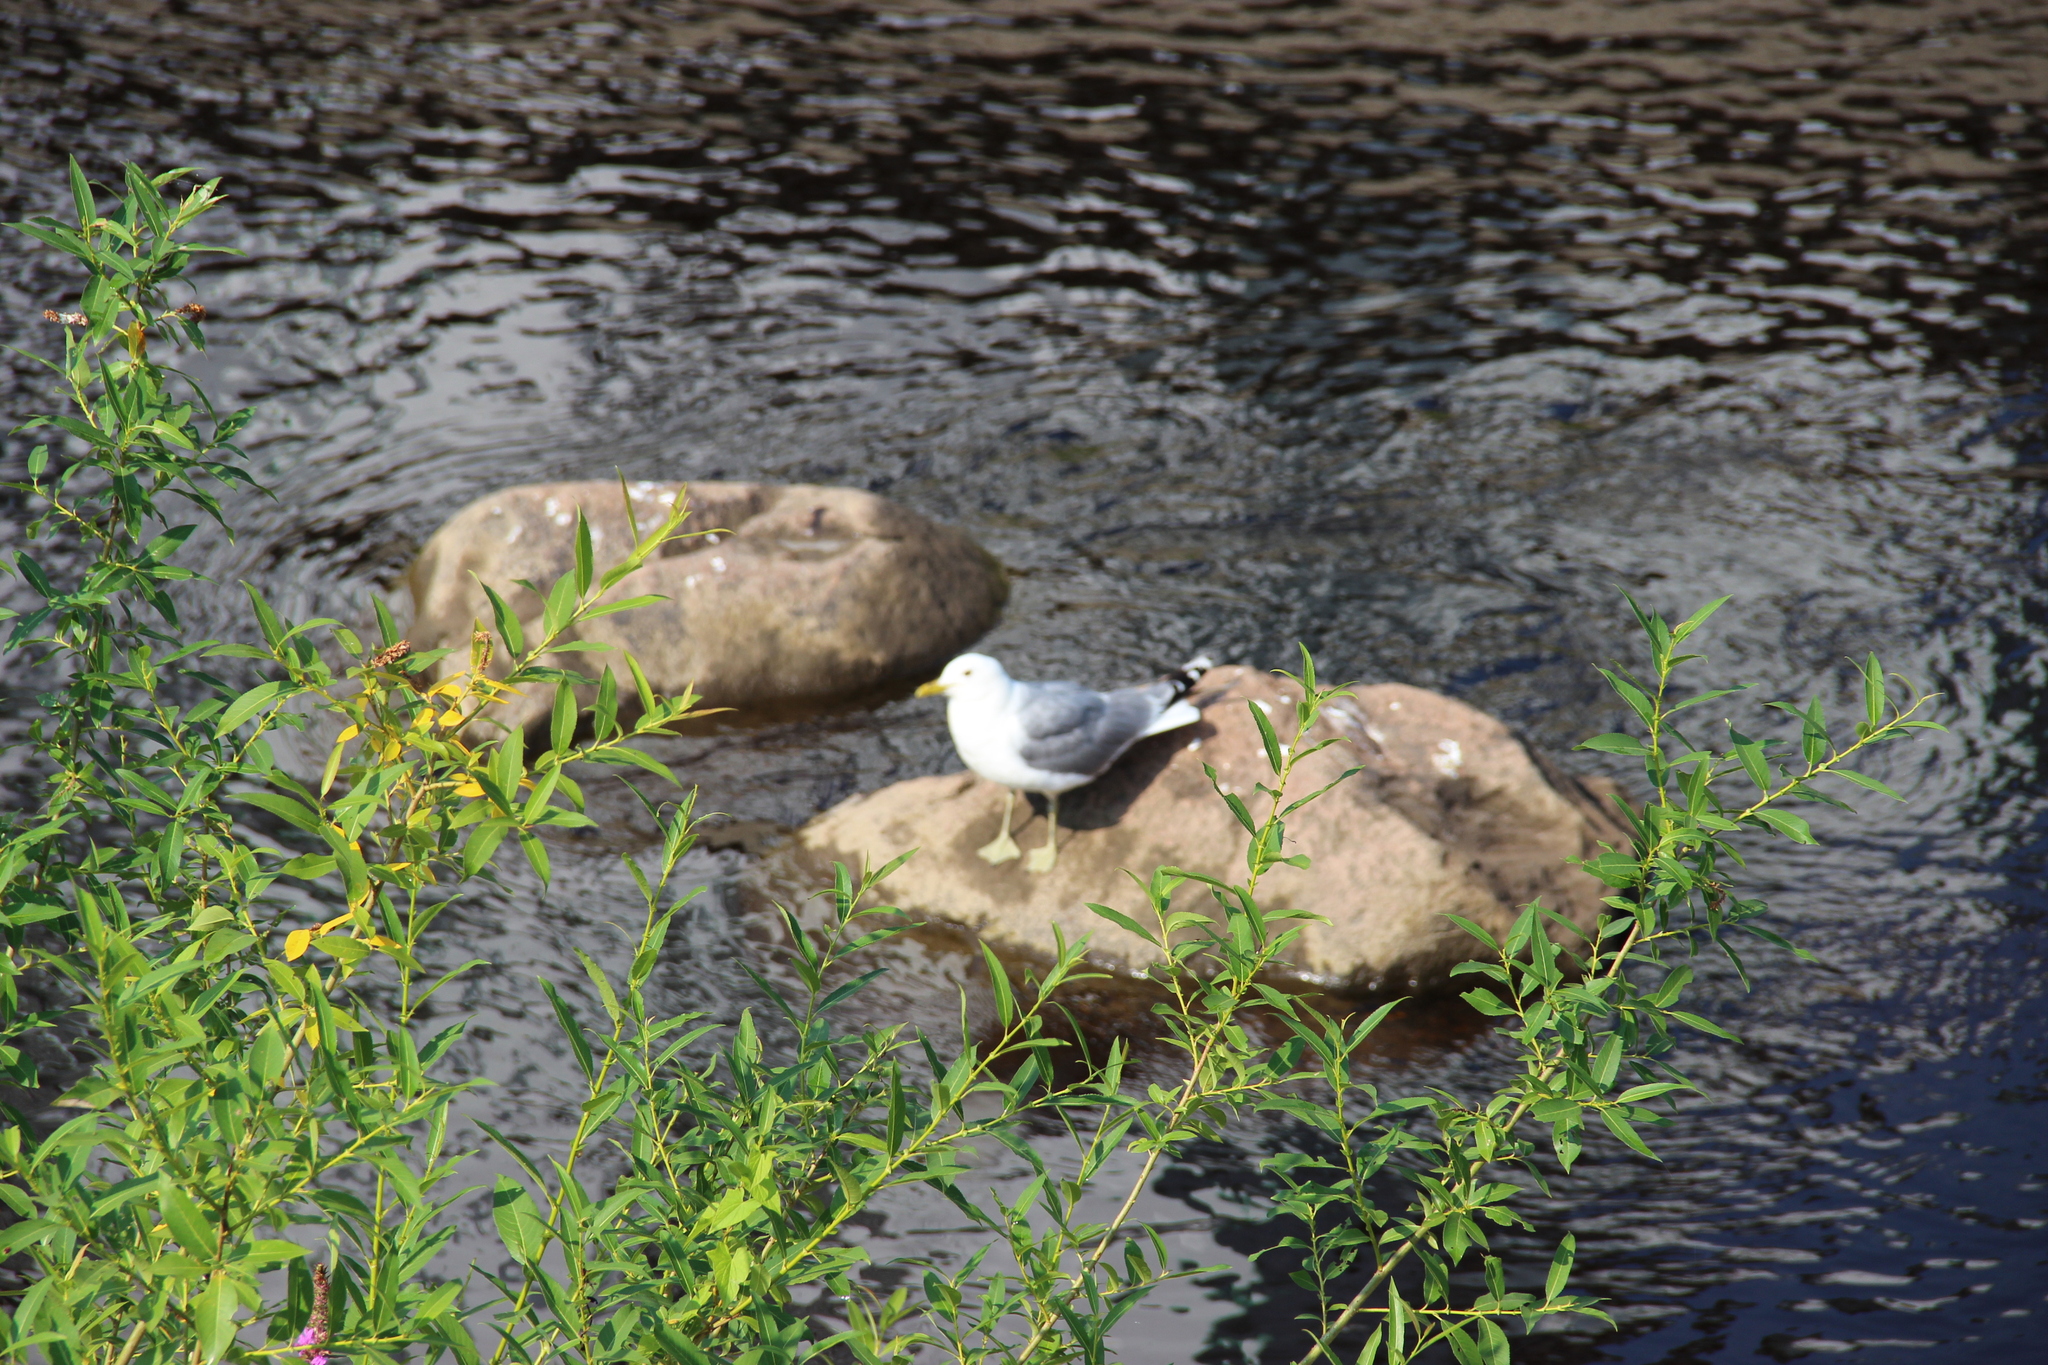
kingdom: Animalia
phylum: Chordata
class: Aves
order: Charadriiformes
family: Laridae
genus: Larus
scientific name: Larus canus
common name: Mew gull
